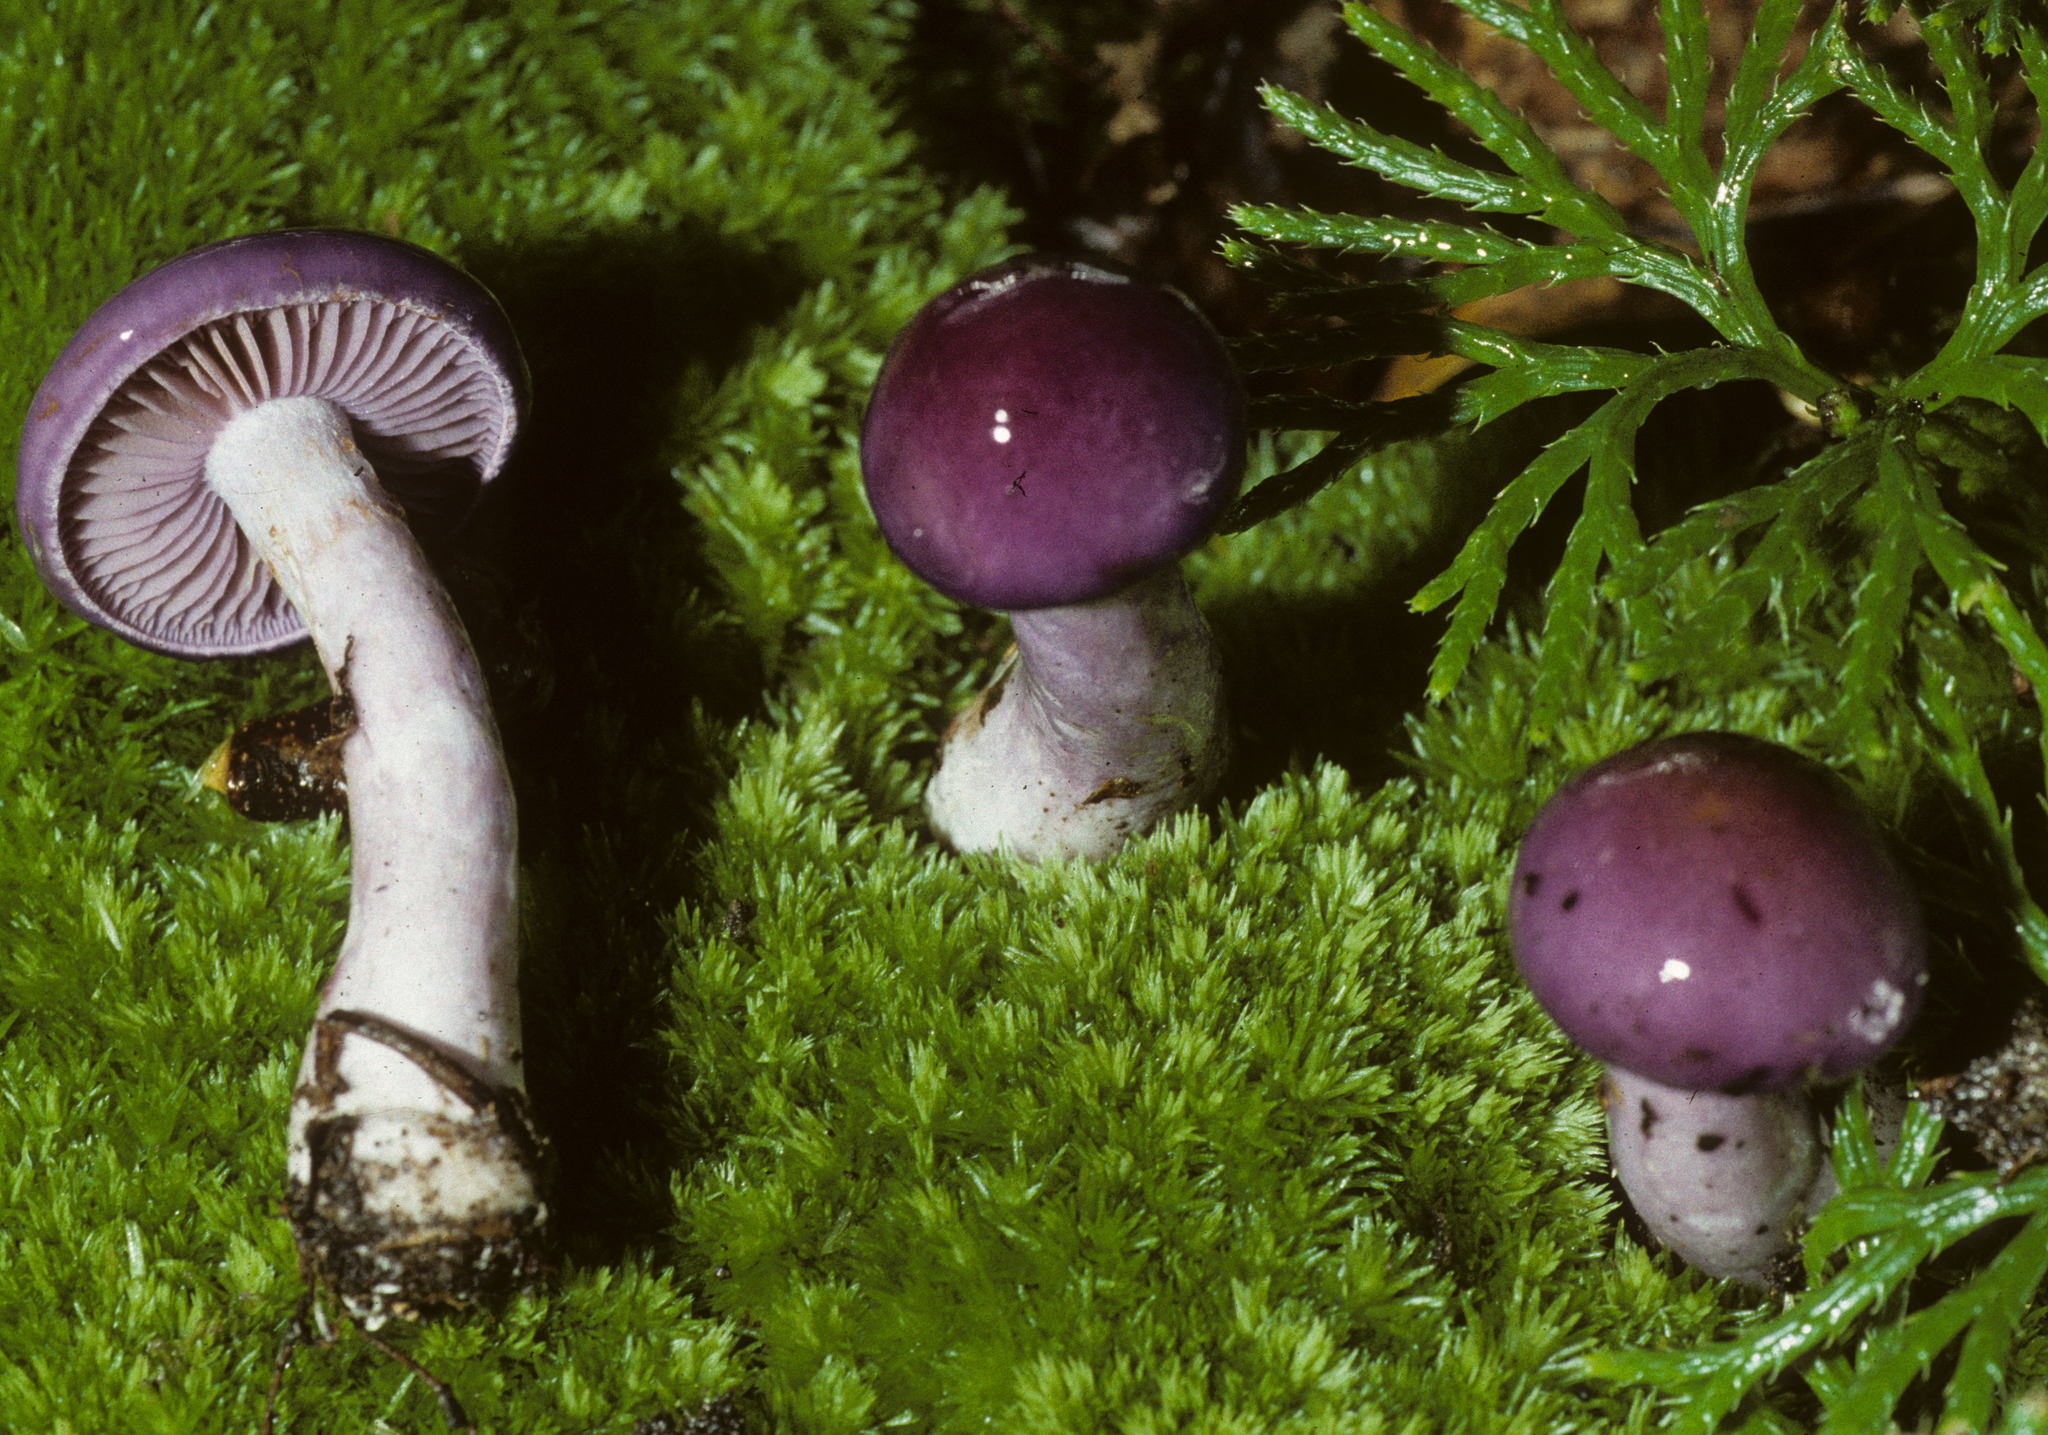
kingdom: Fungi
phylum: Basidiomycota
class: Agaricomycetes
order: Agaricales
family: Cortinariaceae
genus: Cortinarius
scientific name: Cortinarius iodes
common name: Viscid violet cort
